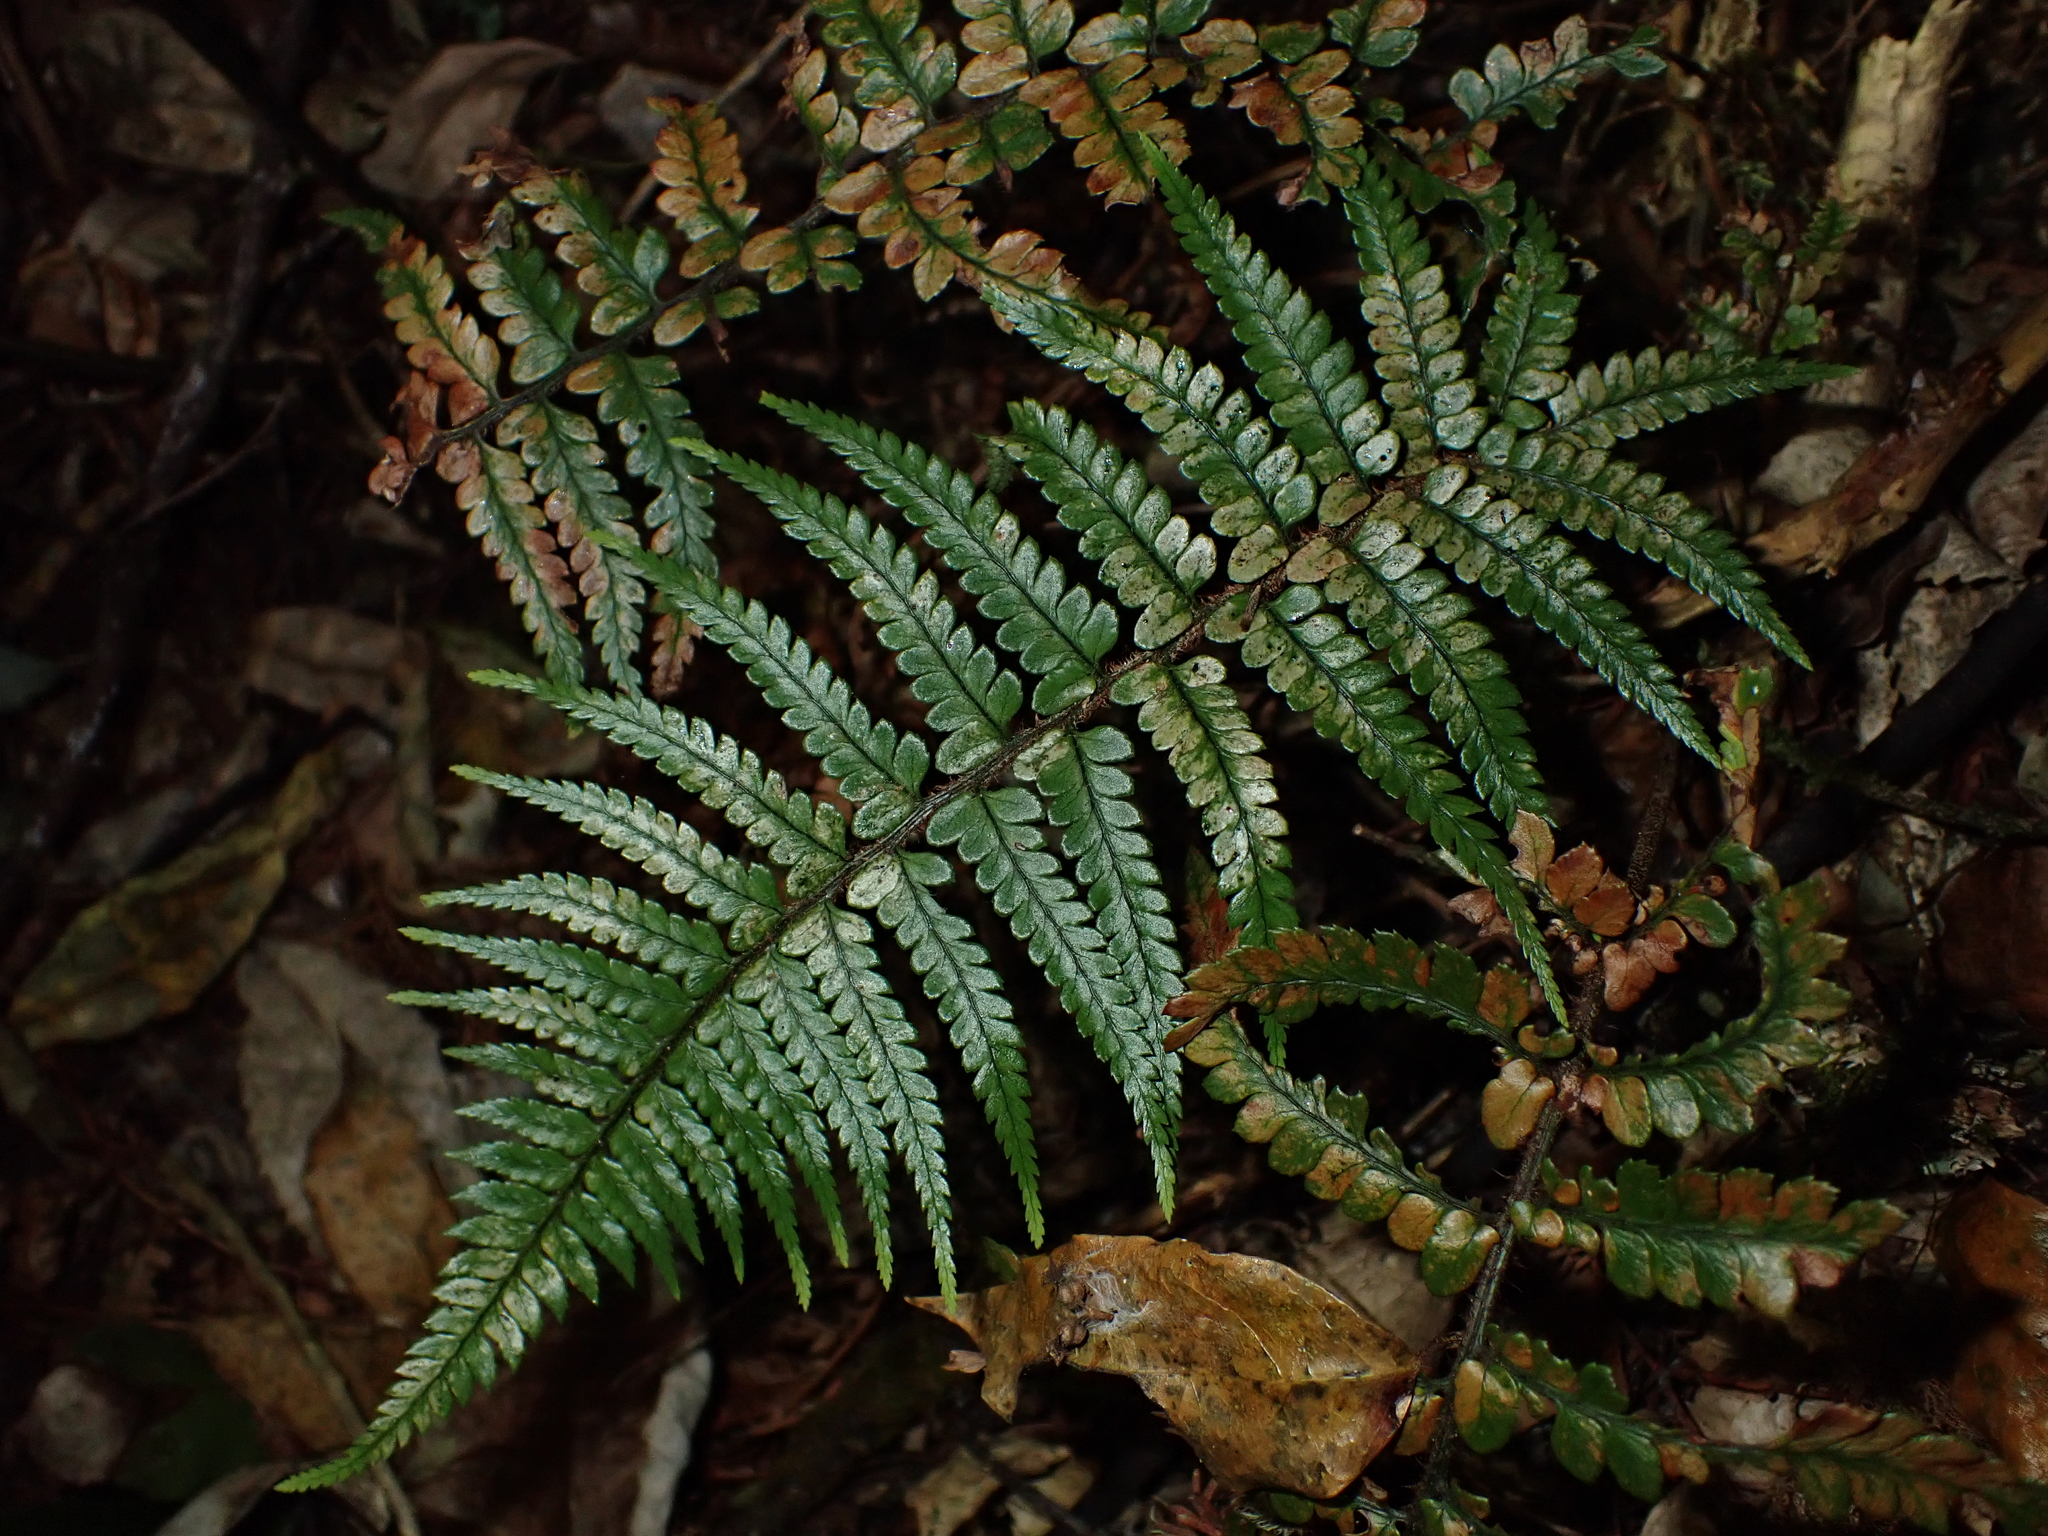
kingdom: Plantae
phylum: Tracheophyta
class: Polypodiopsida
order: Polypodiales
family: Dryopteridaceae
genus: Polystichum
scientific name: Polystichum wawranum
